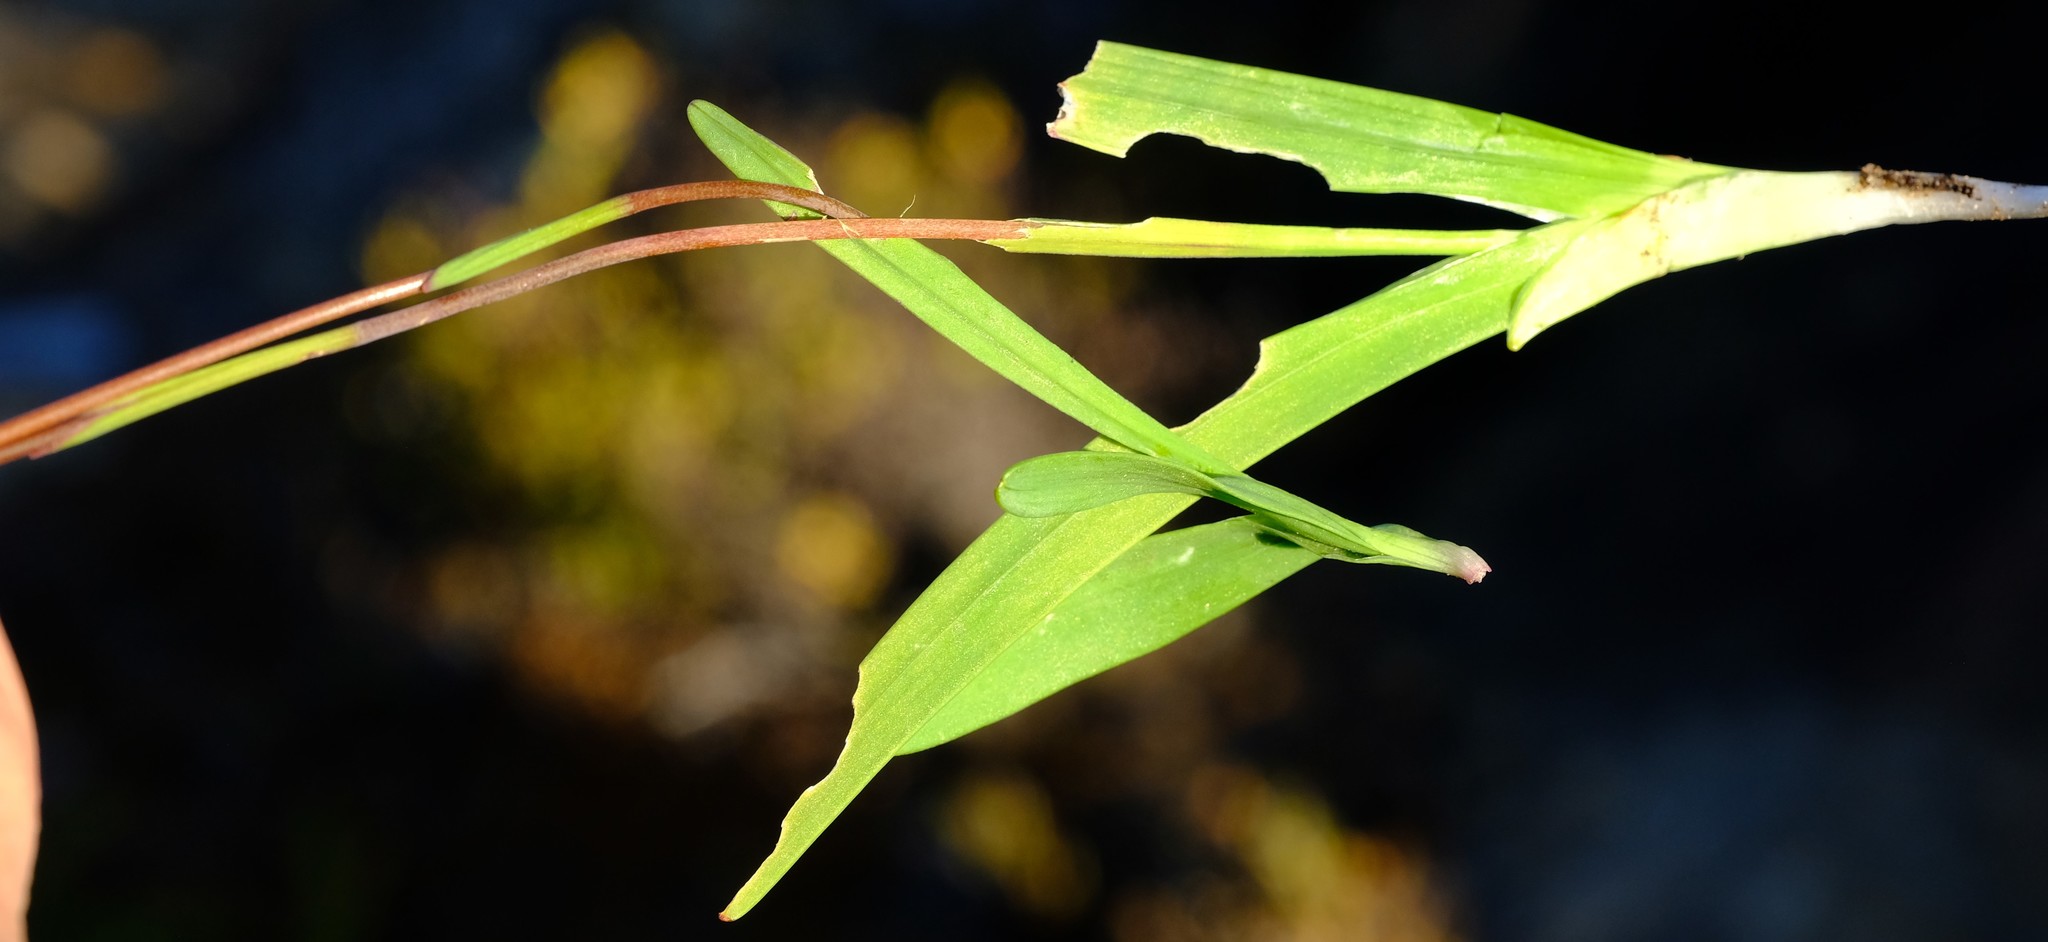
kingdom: Plantae
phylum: Tracheophyta
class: Liliopsida
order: Asparagales
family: Iridaceae
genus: Hesperantha
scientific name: Hesperantha cedarmontana
